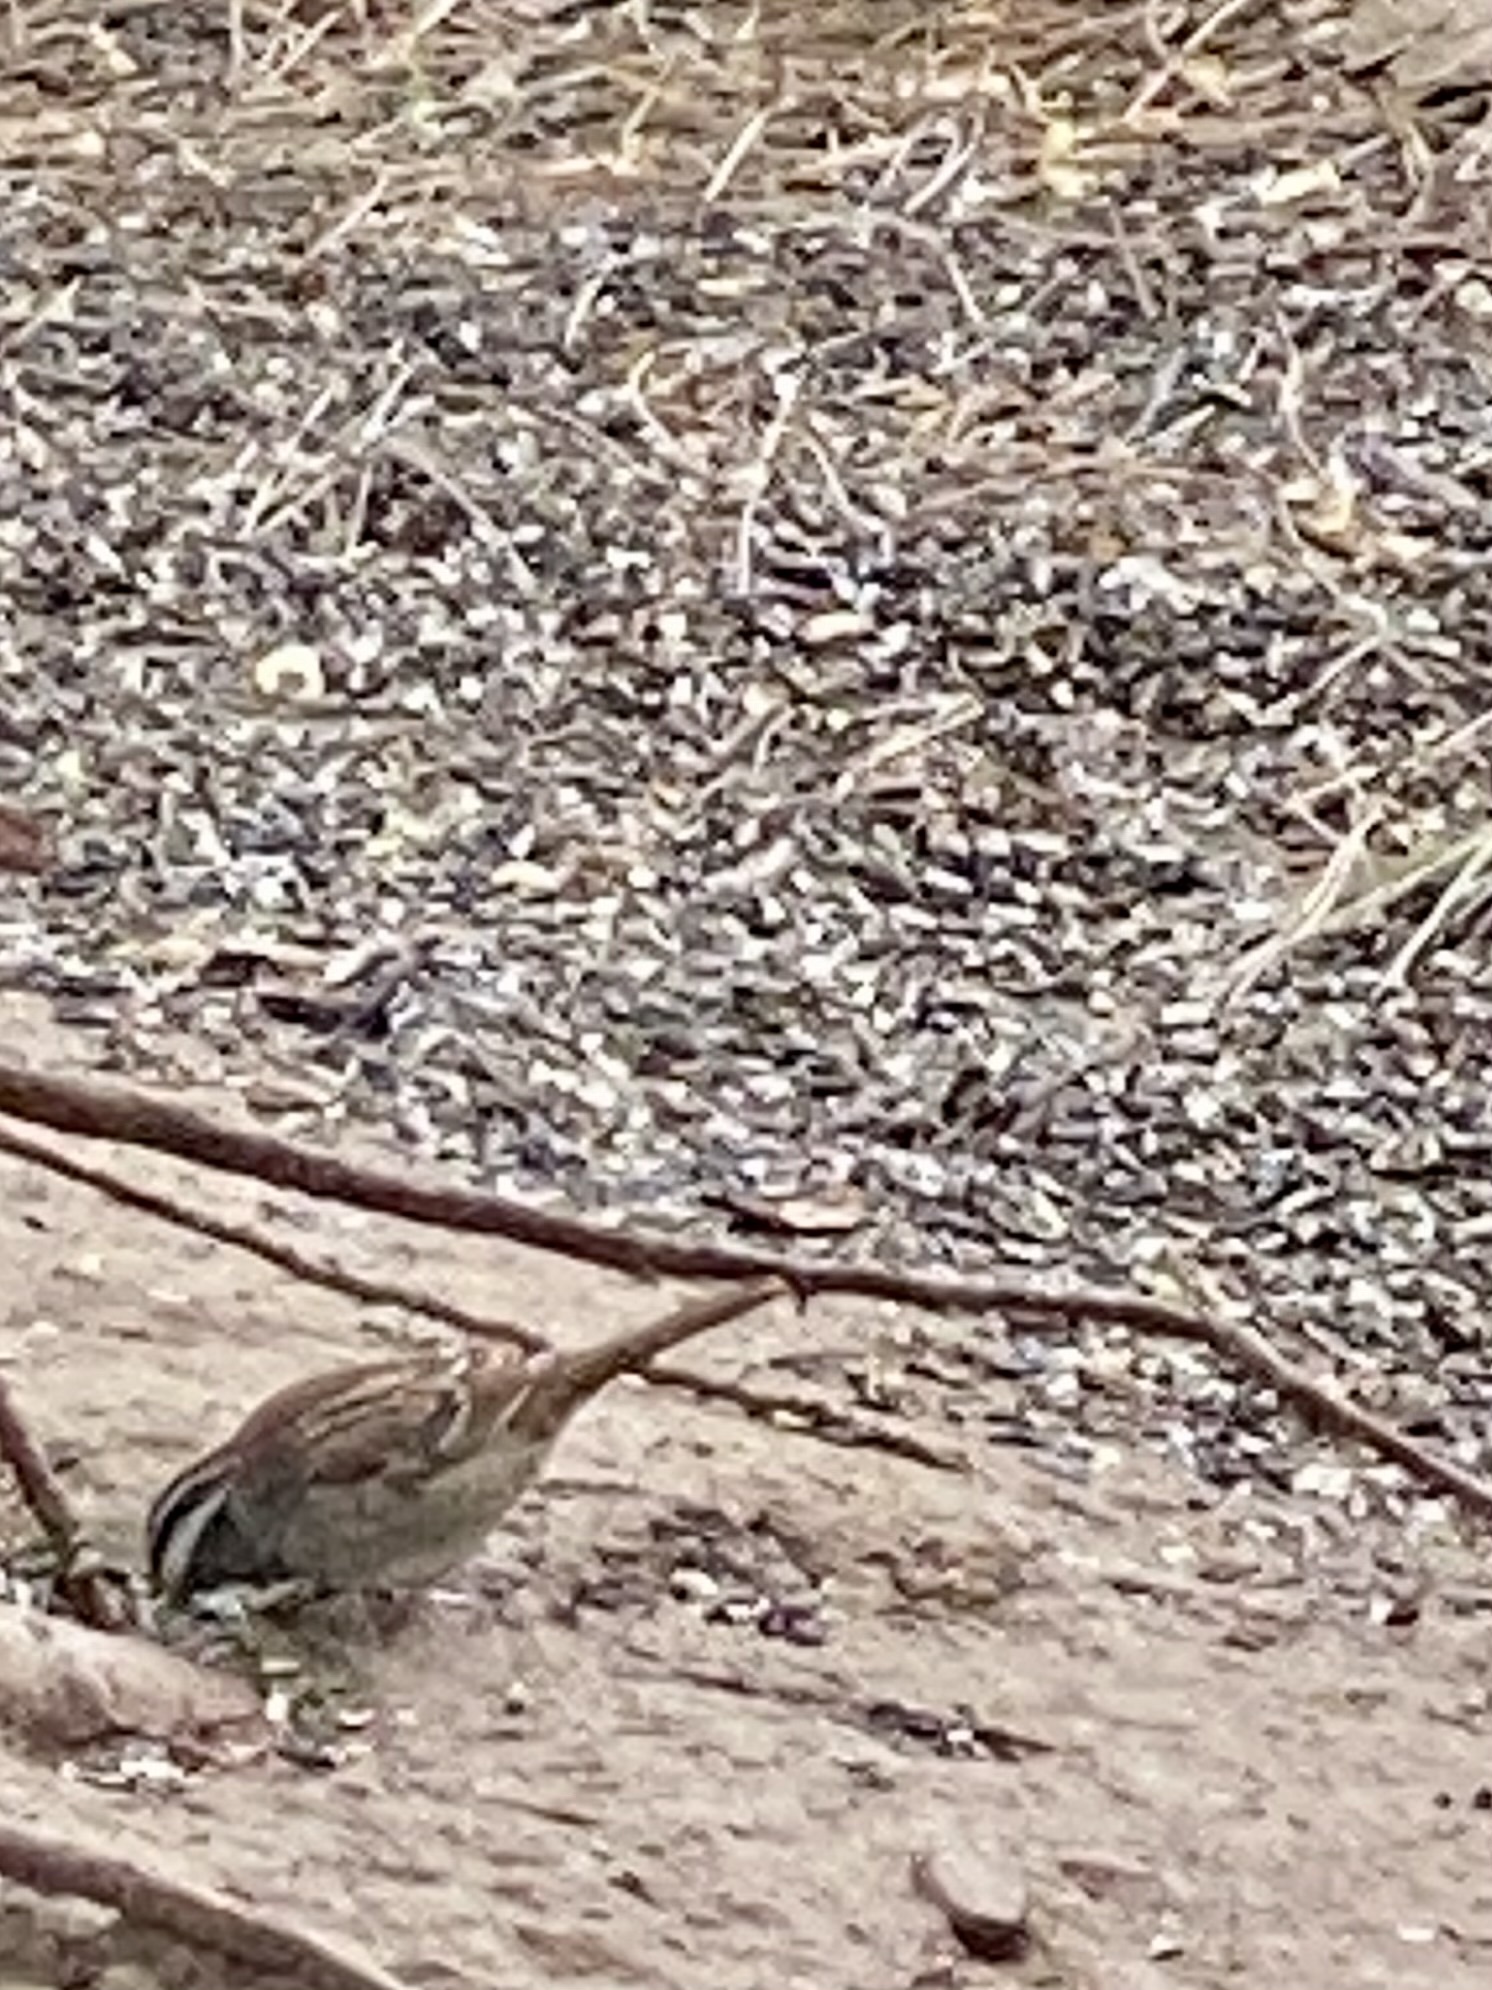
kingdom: Animalia
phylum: Chordata
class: Aves
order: Passeriformes
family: Passerellidae
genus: Zonotrichia
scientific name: Zonotrichia albicollis
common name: White-throated sparrow
